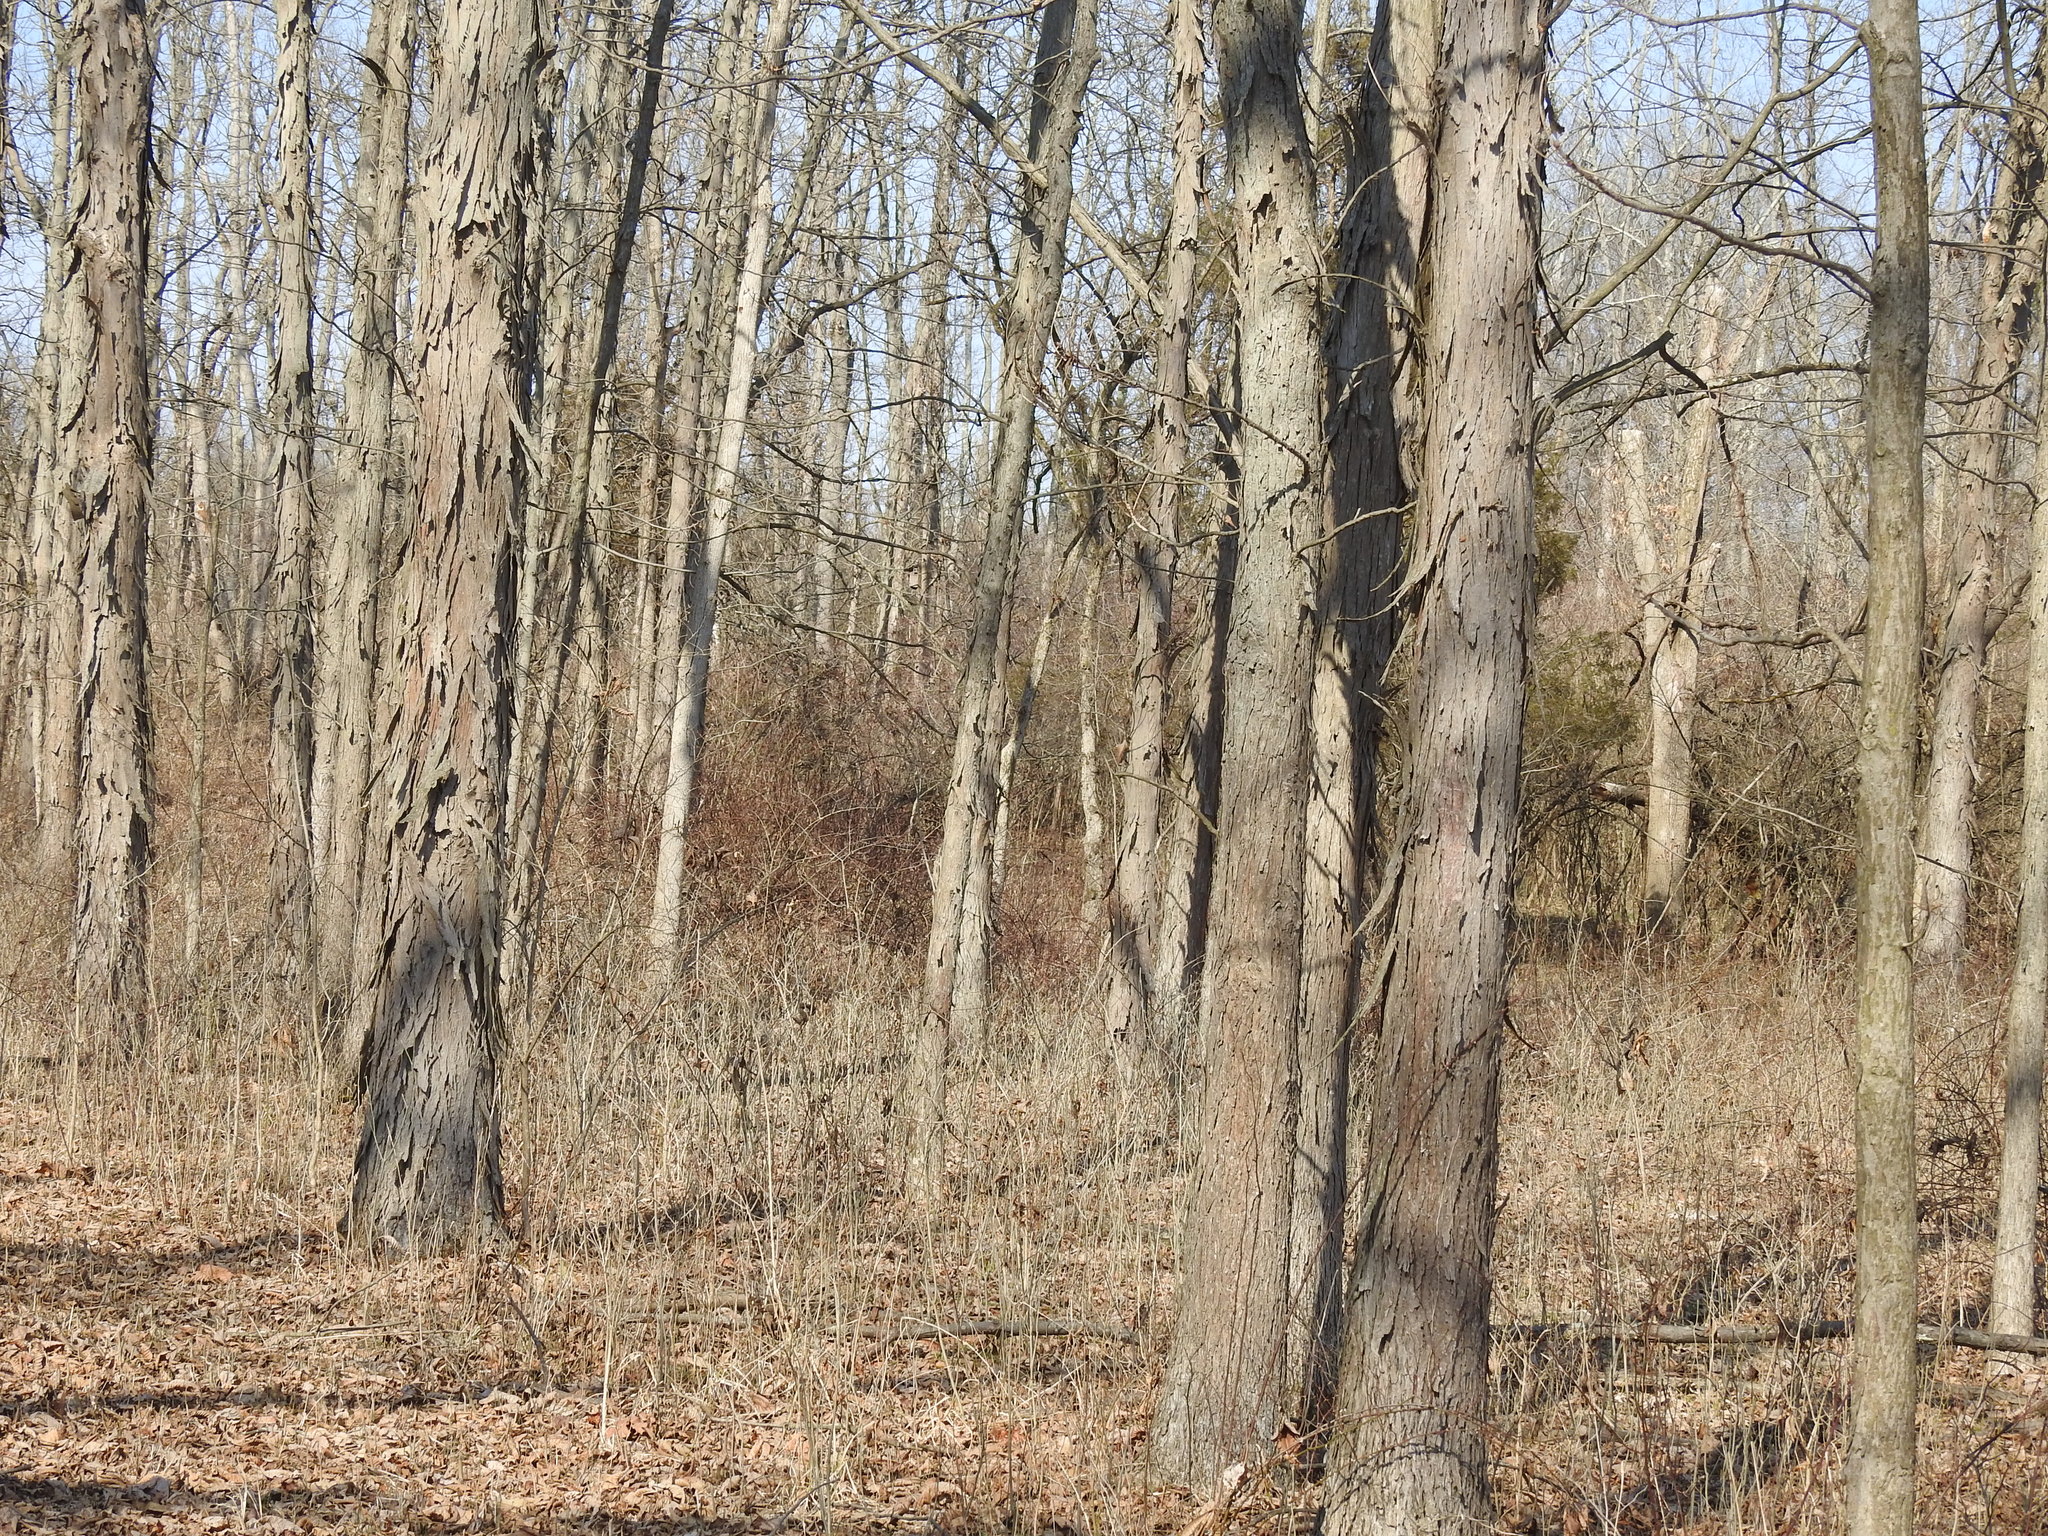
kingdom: Plantae
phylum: Tracheophyta
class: Magnoliopsida
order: Fagales
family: Juglandaceae
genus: Carya
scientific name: Carya laciniosa
